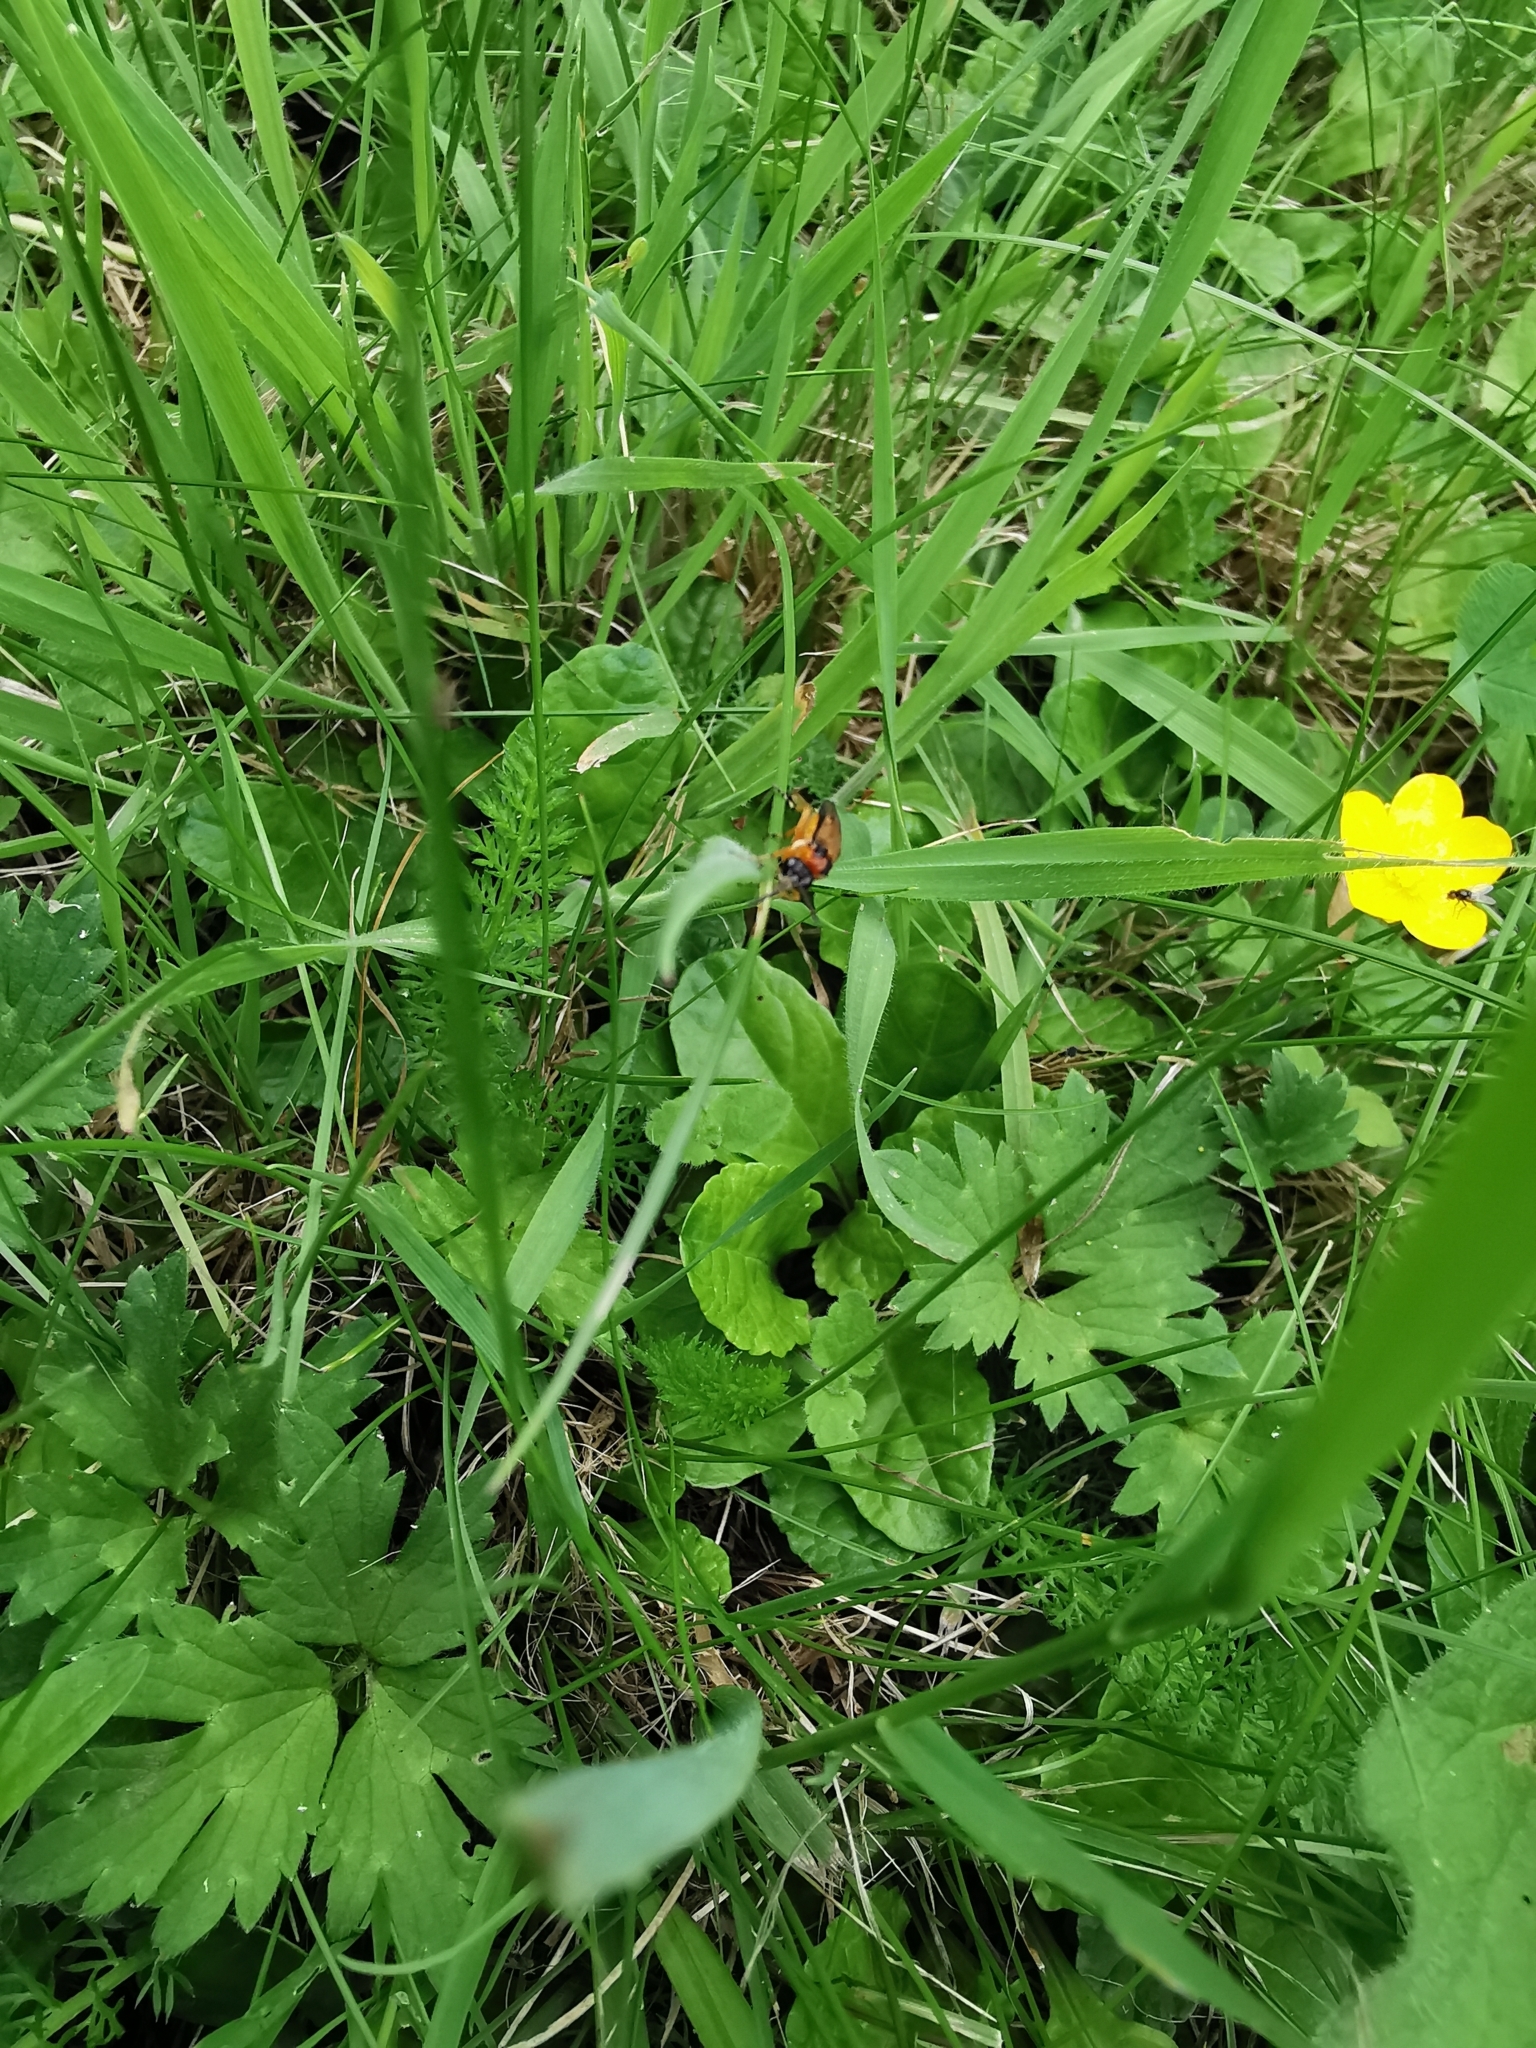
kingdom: Animalia
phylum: Arthropoda
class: Insecta
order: Hymenoptera
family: Tenthredinidae
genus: Athalia
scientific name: Athalia rosae
